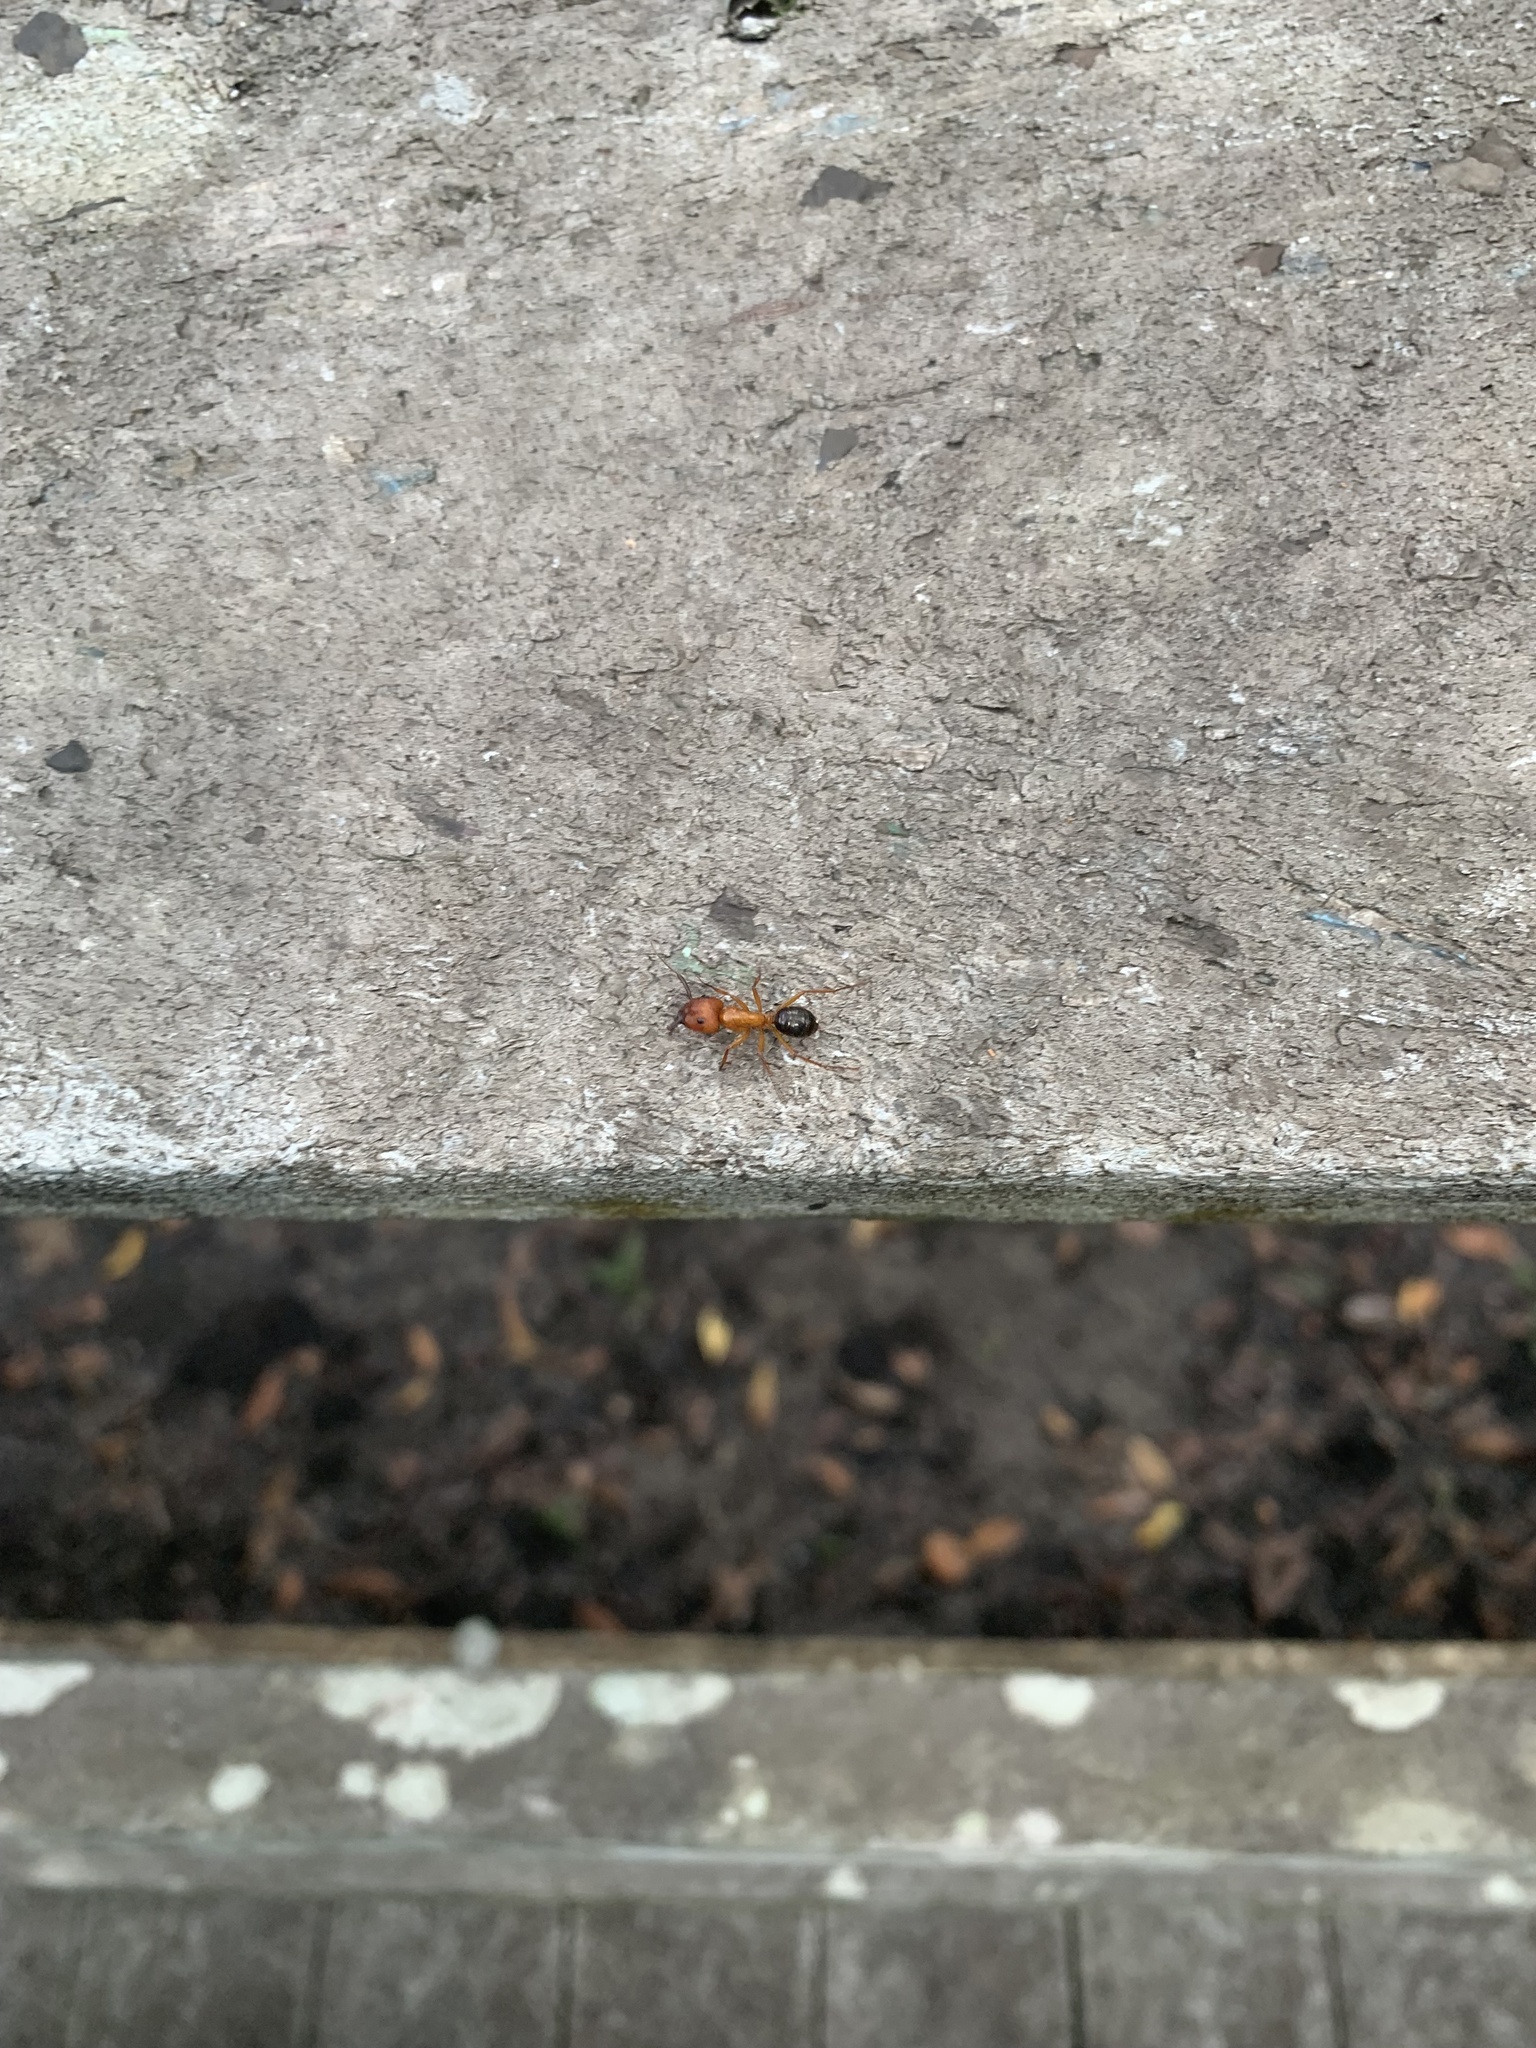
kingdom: Animalia
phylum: Arthropoda
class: Insecta
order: Hymenoptera
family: Formicidae
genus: Camponotus
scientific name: Camponotus floridanus
